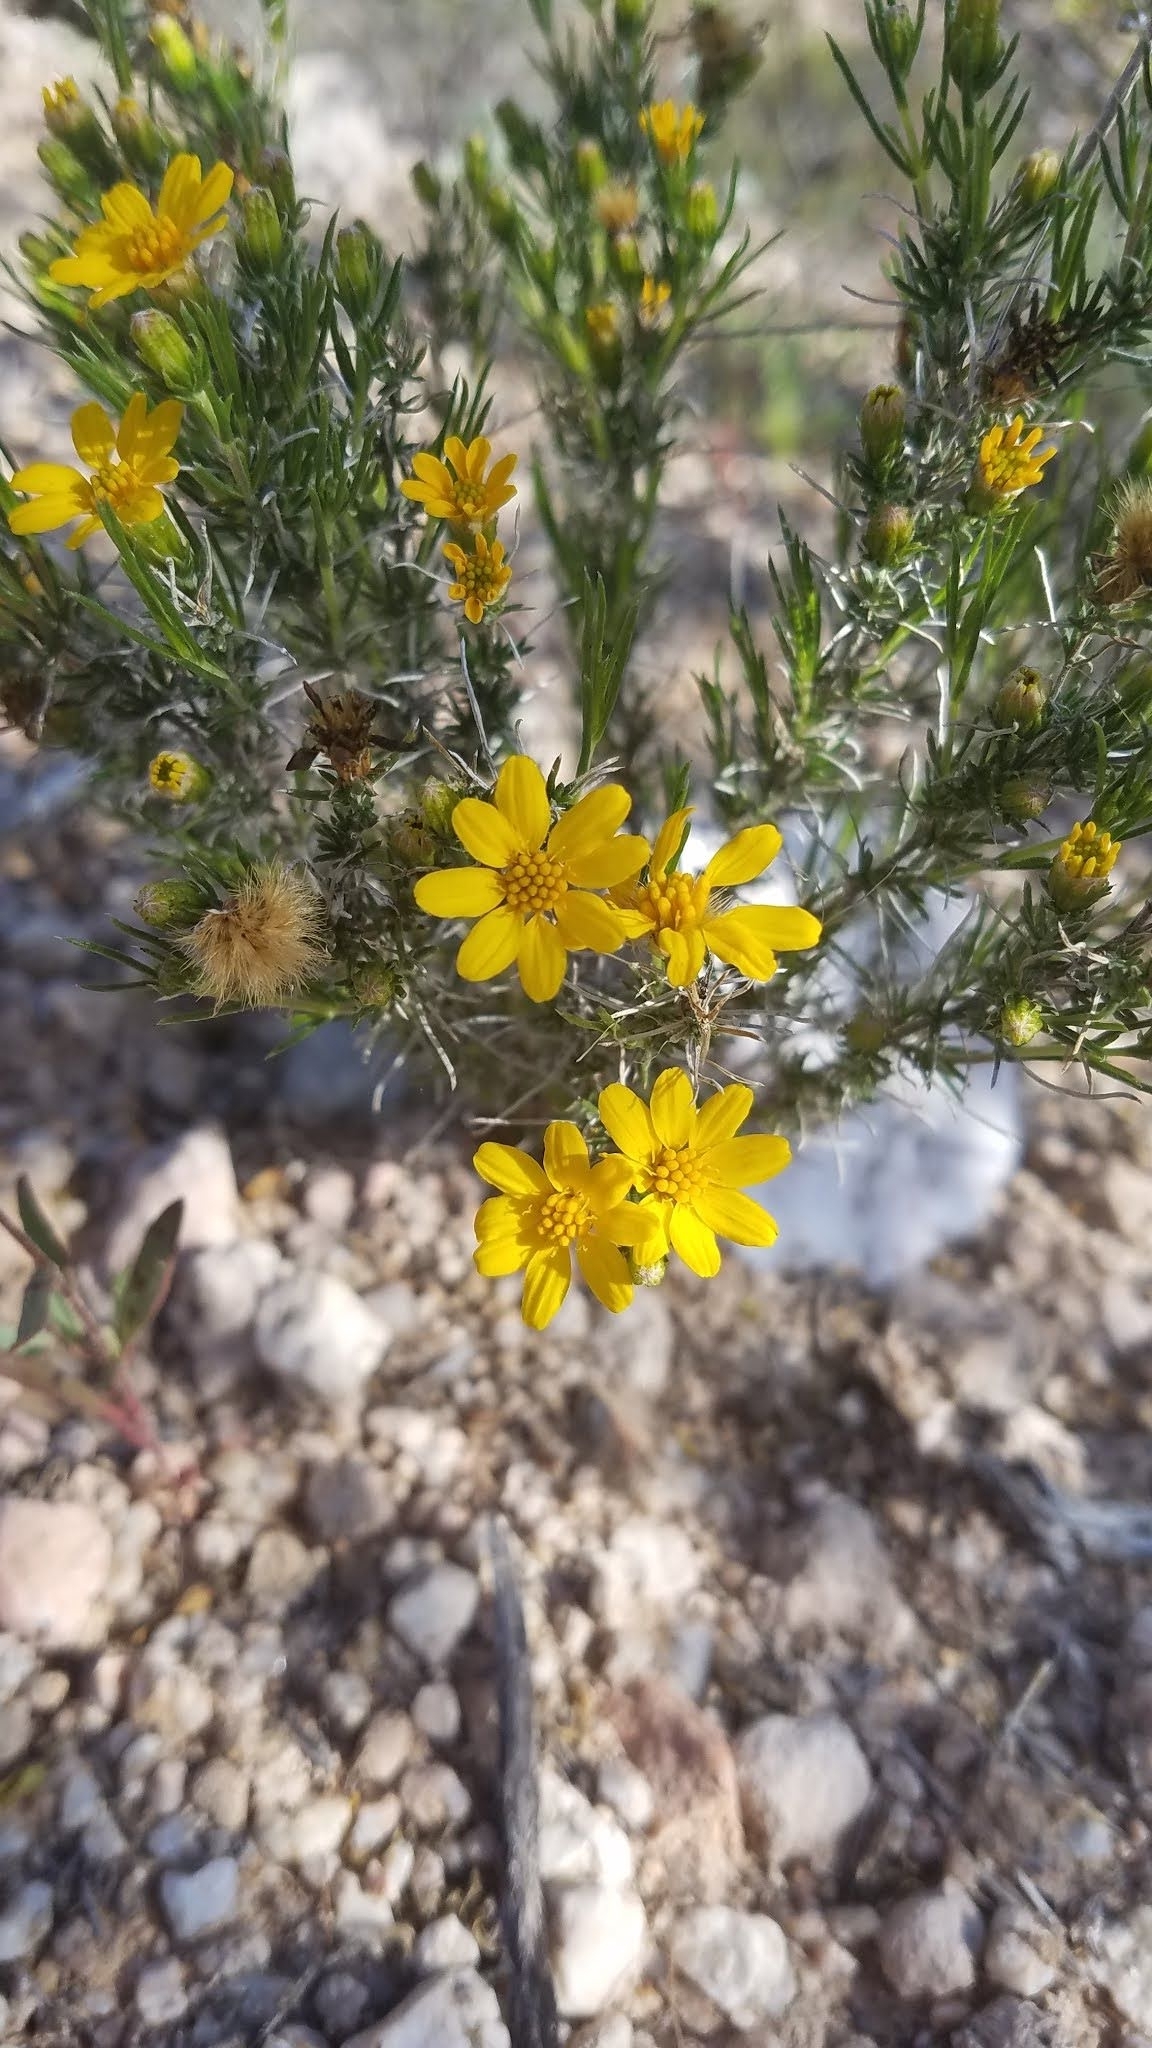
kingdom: Plantae
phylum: Tracheophyta
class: Magnoliopsida
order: Asterales
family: Asteraceae
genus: Thymophylla
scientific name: Thymophylla acerosa
